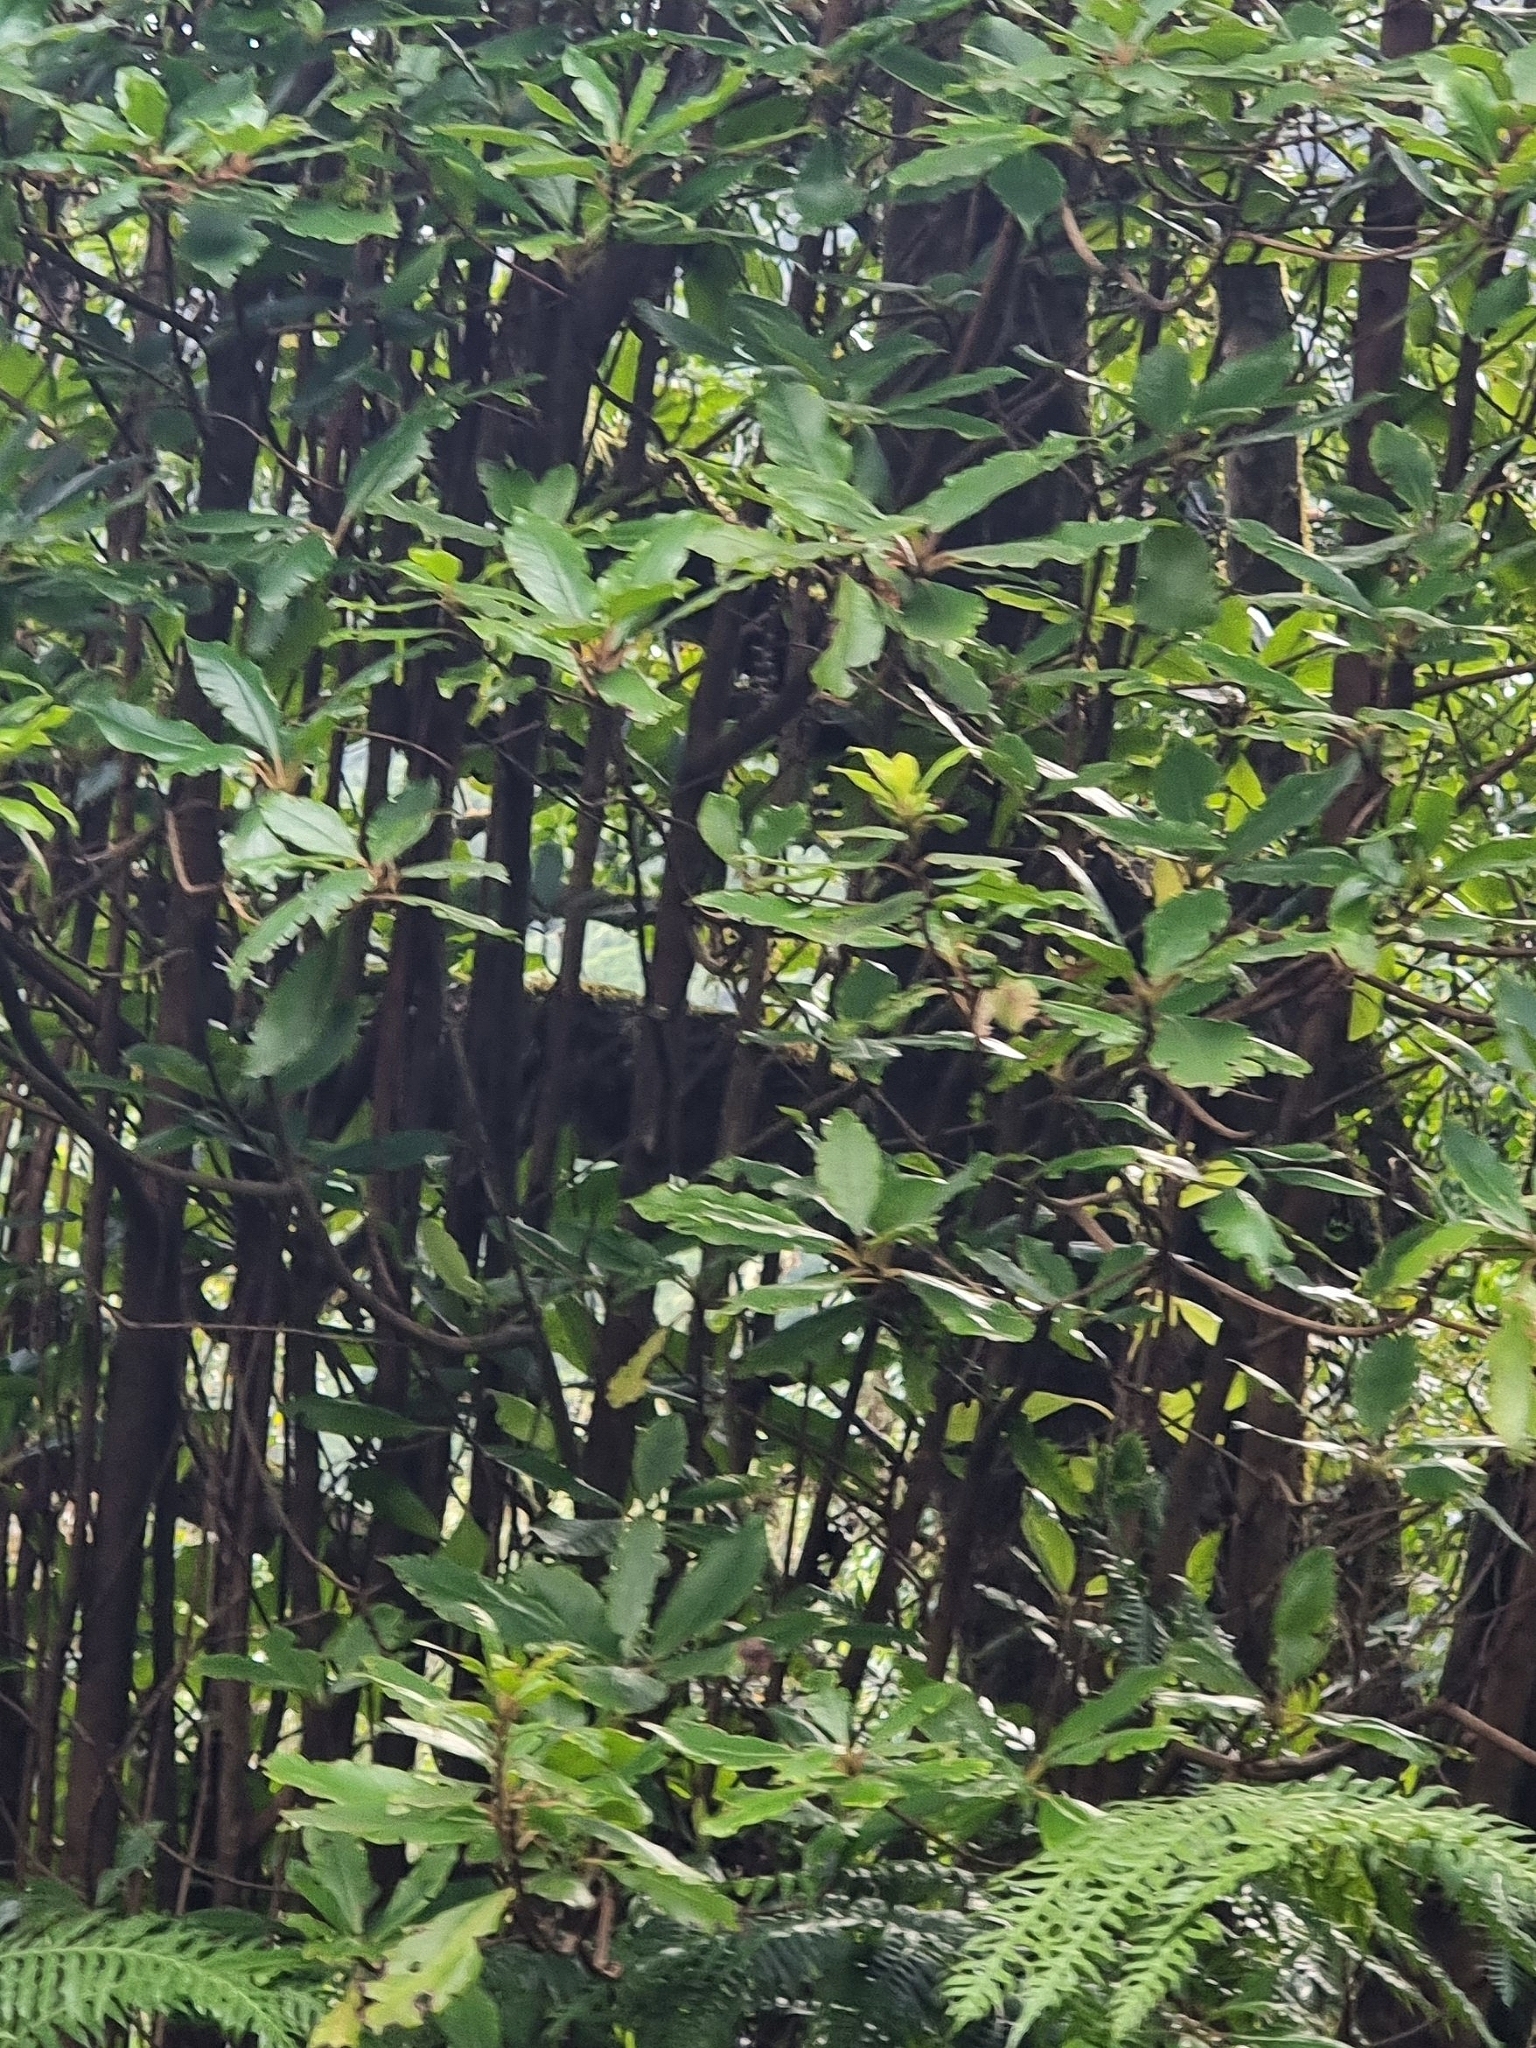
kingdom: Plantae
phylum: Tracheophyta
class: Magnoliopsida
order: Ericales
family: Clethraceae
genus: Clethra
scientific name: Clethra arborea
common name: Lily-of-the-valley-tree
